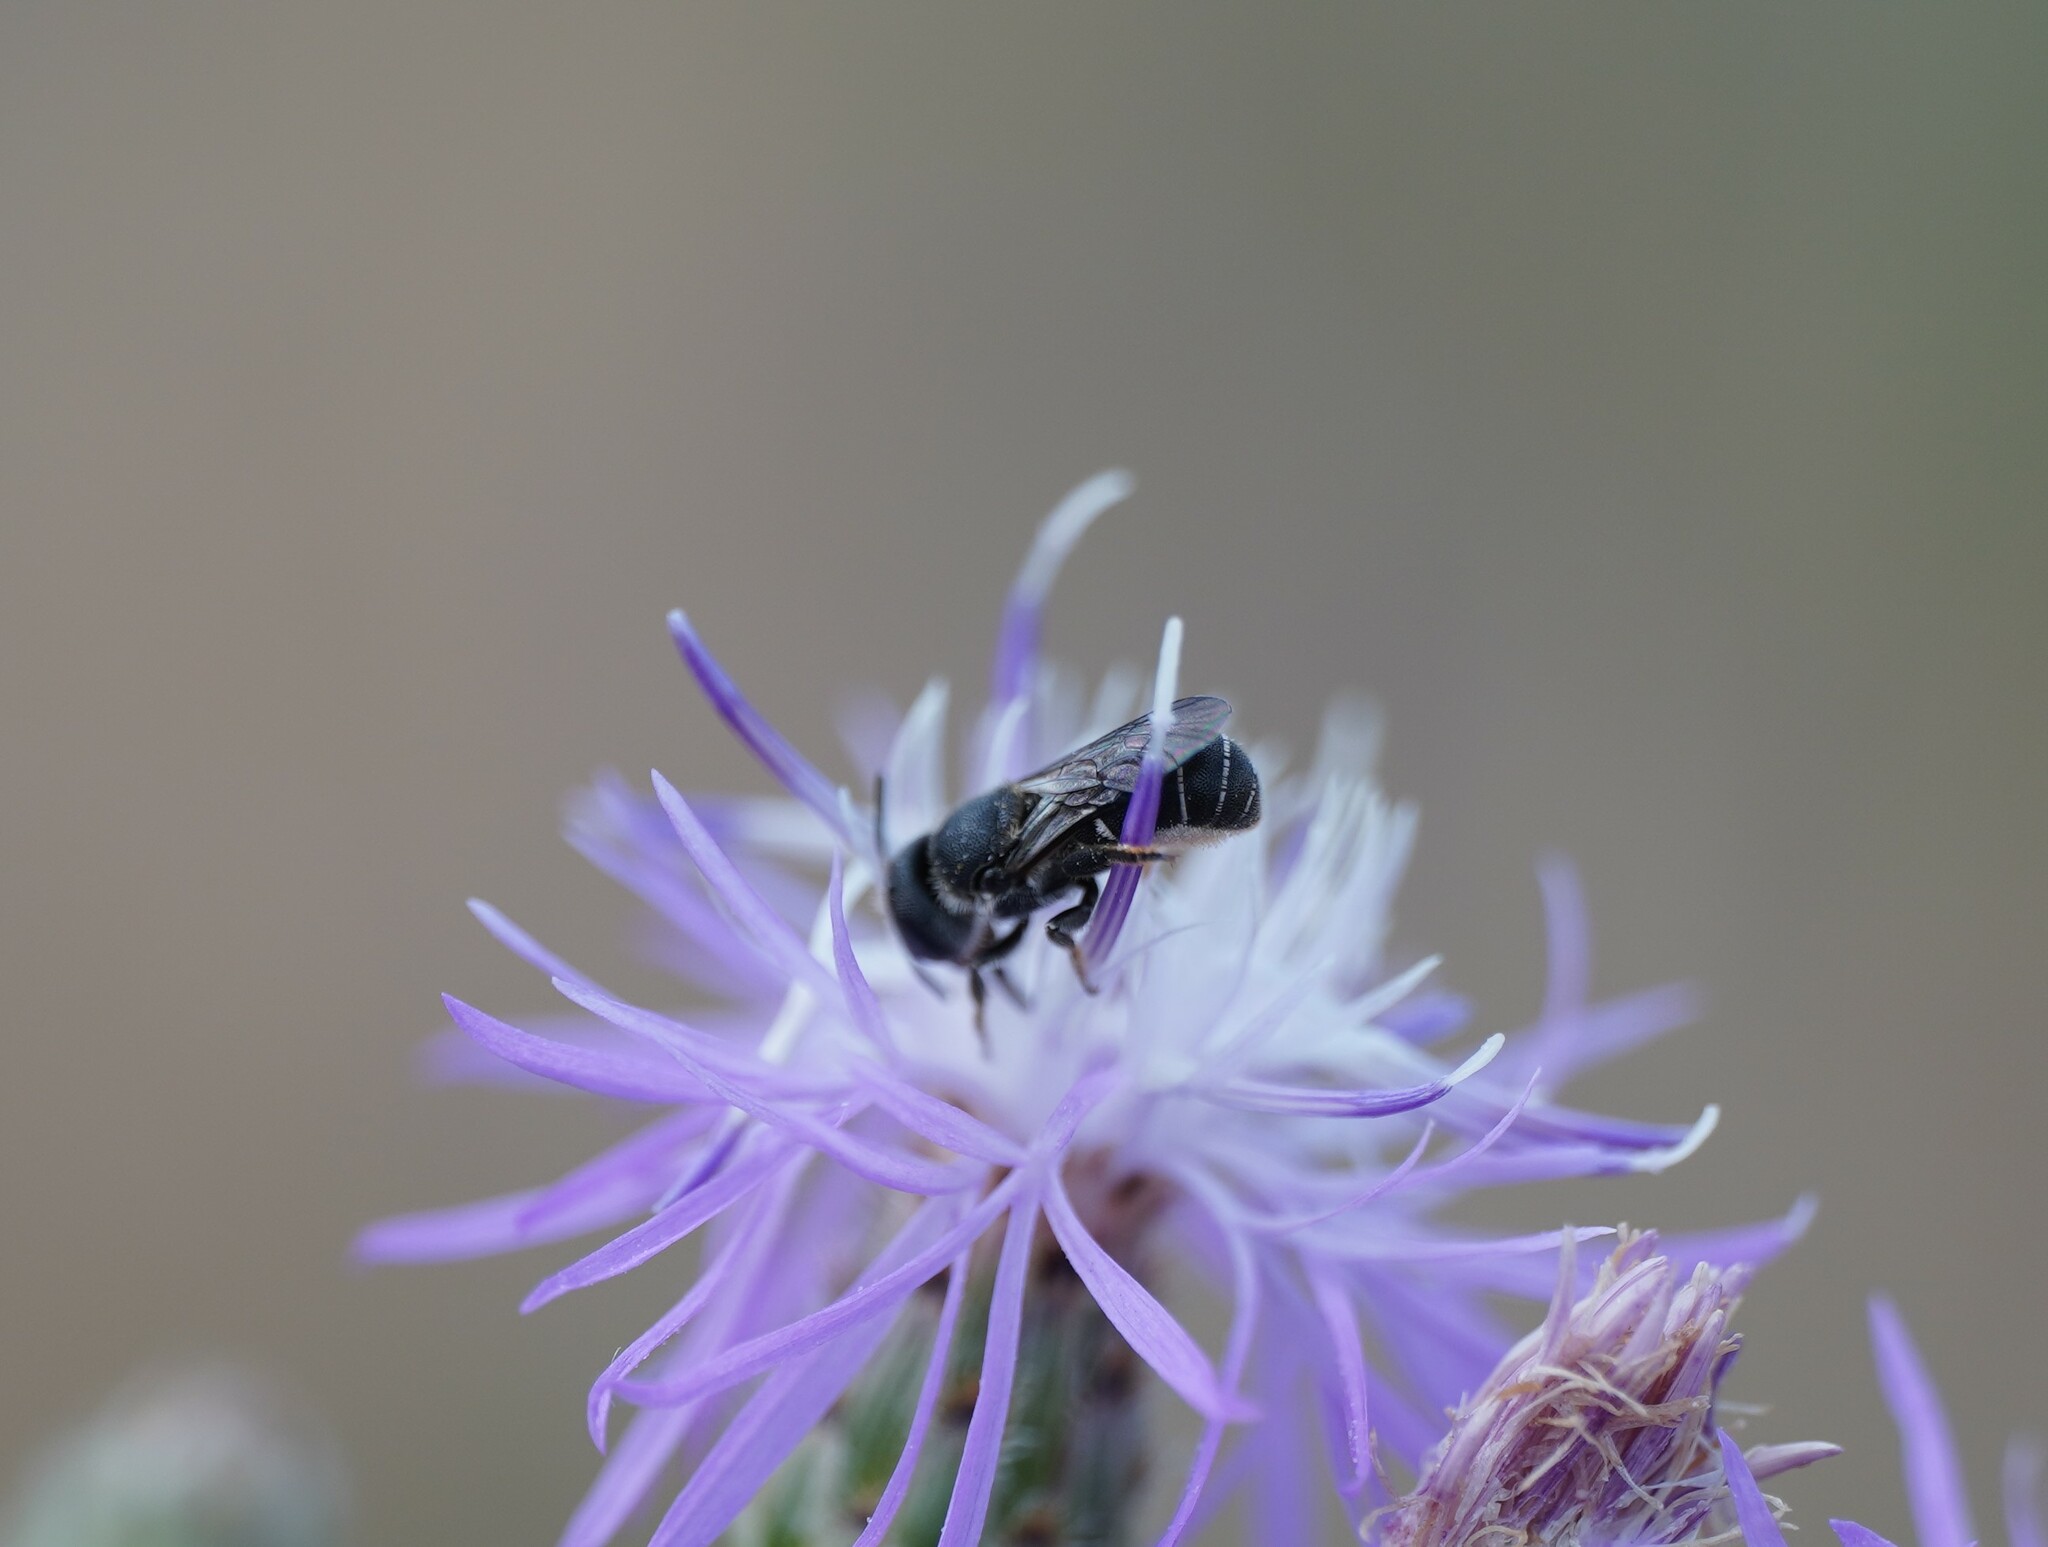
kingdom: Animalia
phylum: Arthropoda
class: Insecta
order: Hymenoptera
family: Megachilidae
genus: Heriades
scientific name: Heriades crenulata
